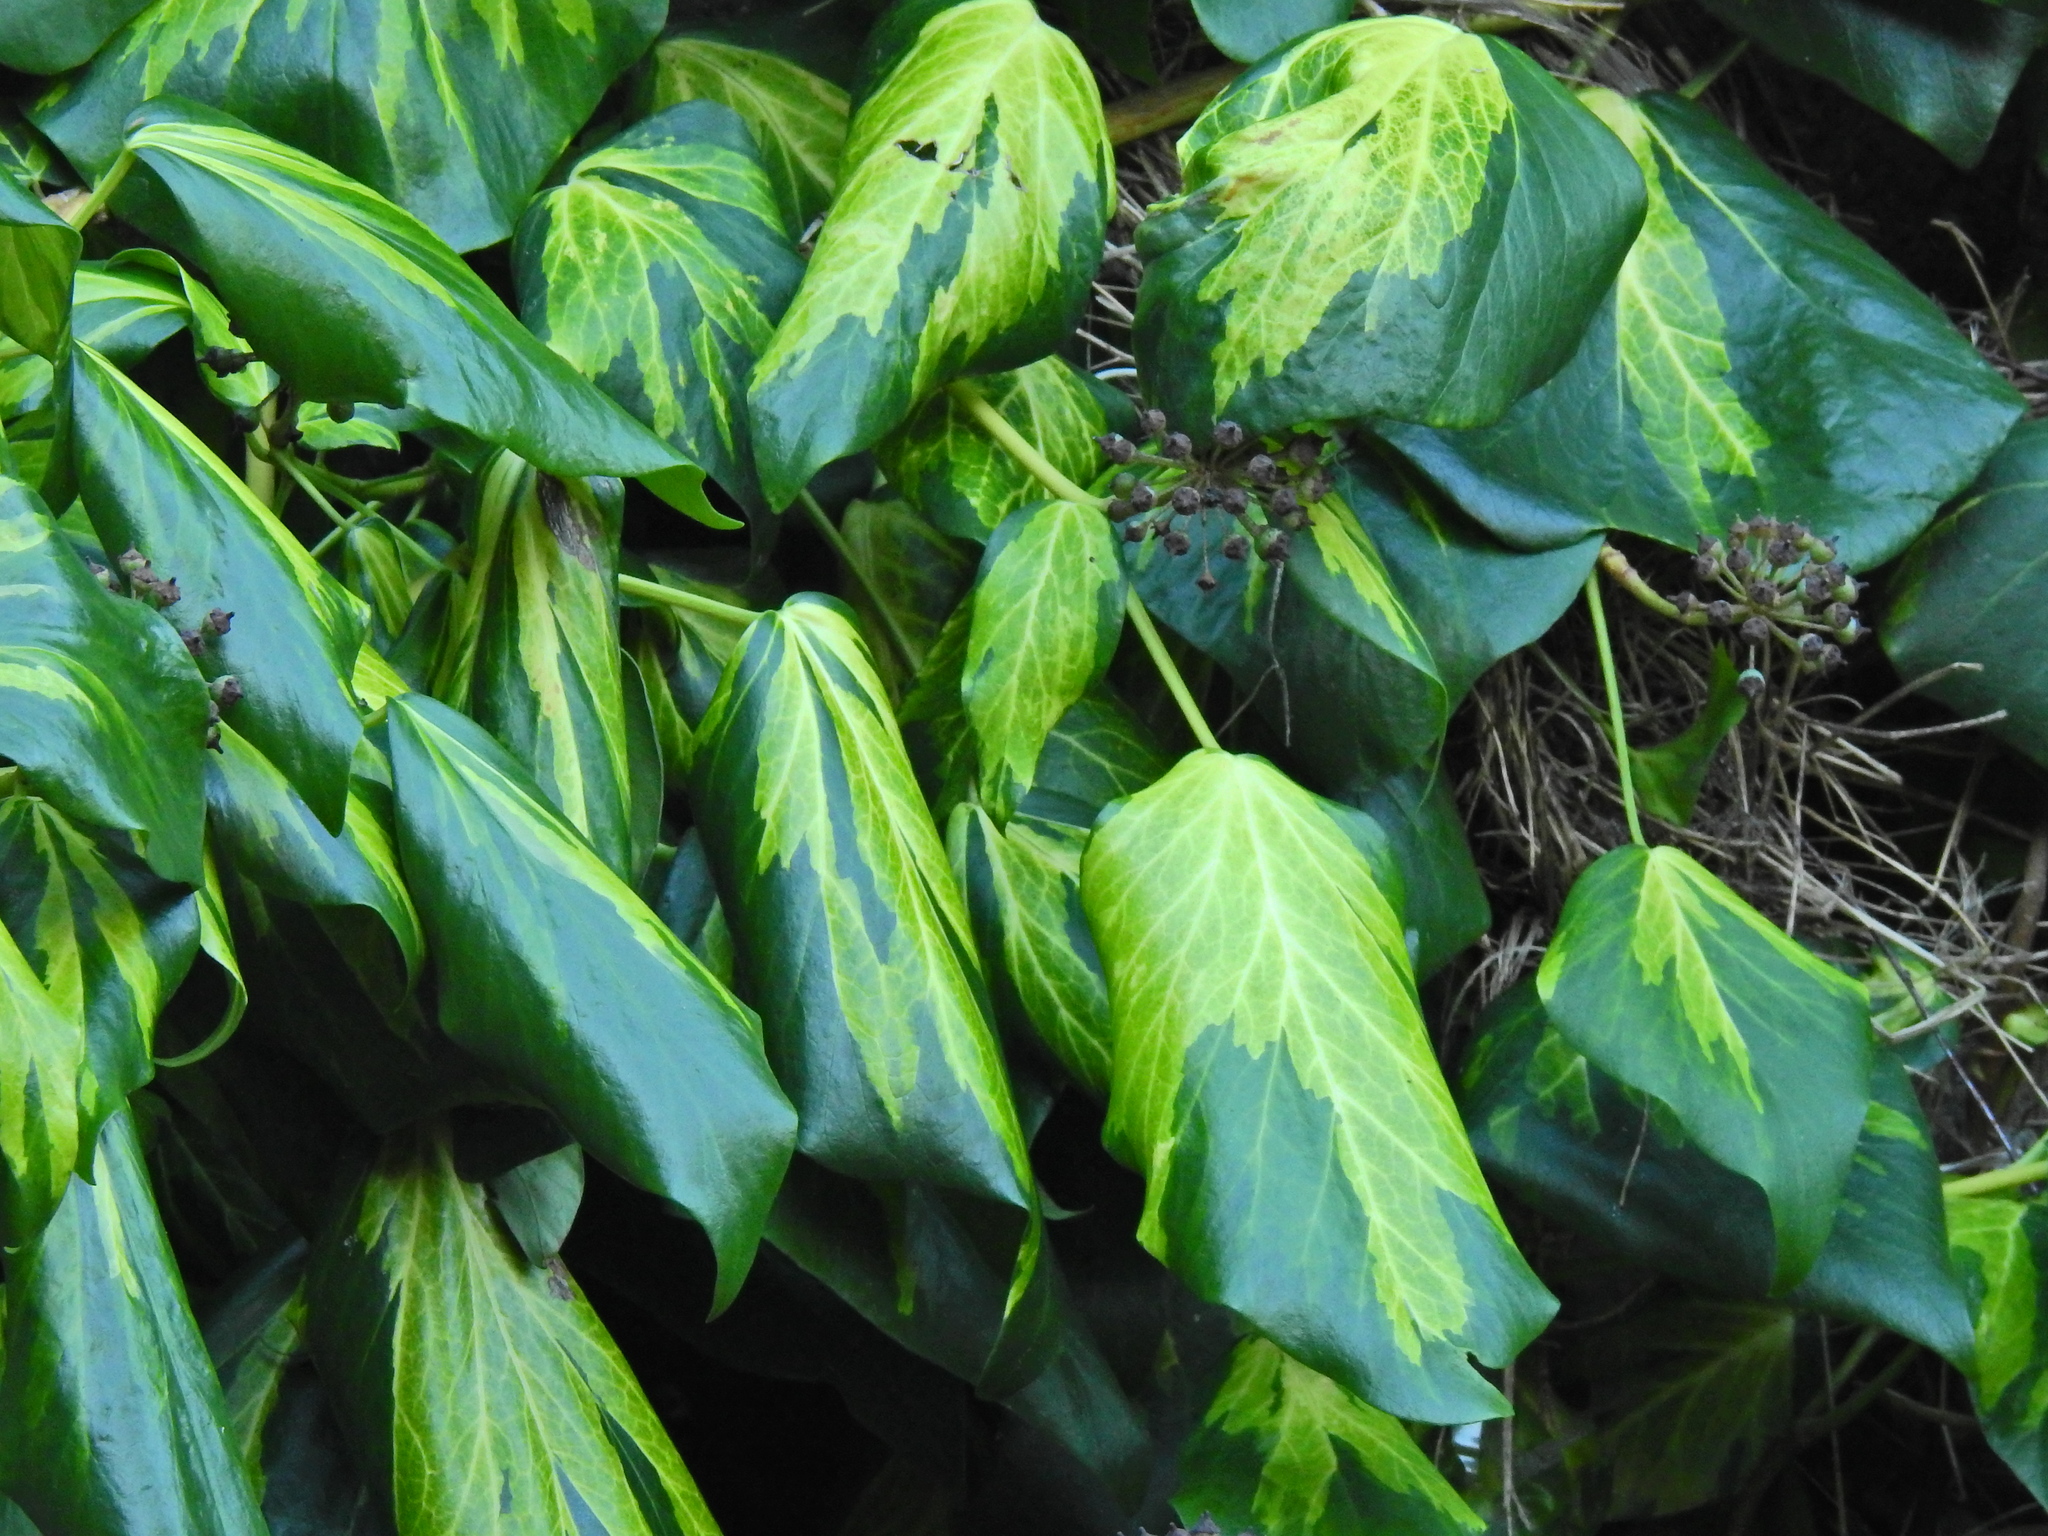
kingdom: Plantae
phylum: Tracheophyta
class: Magnoliopsida
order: Apiales
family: Araliaceae
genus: Hedera
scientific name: Hedera colchica
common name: Persian ivy
